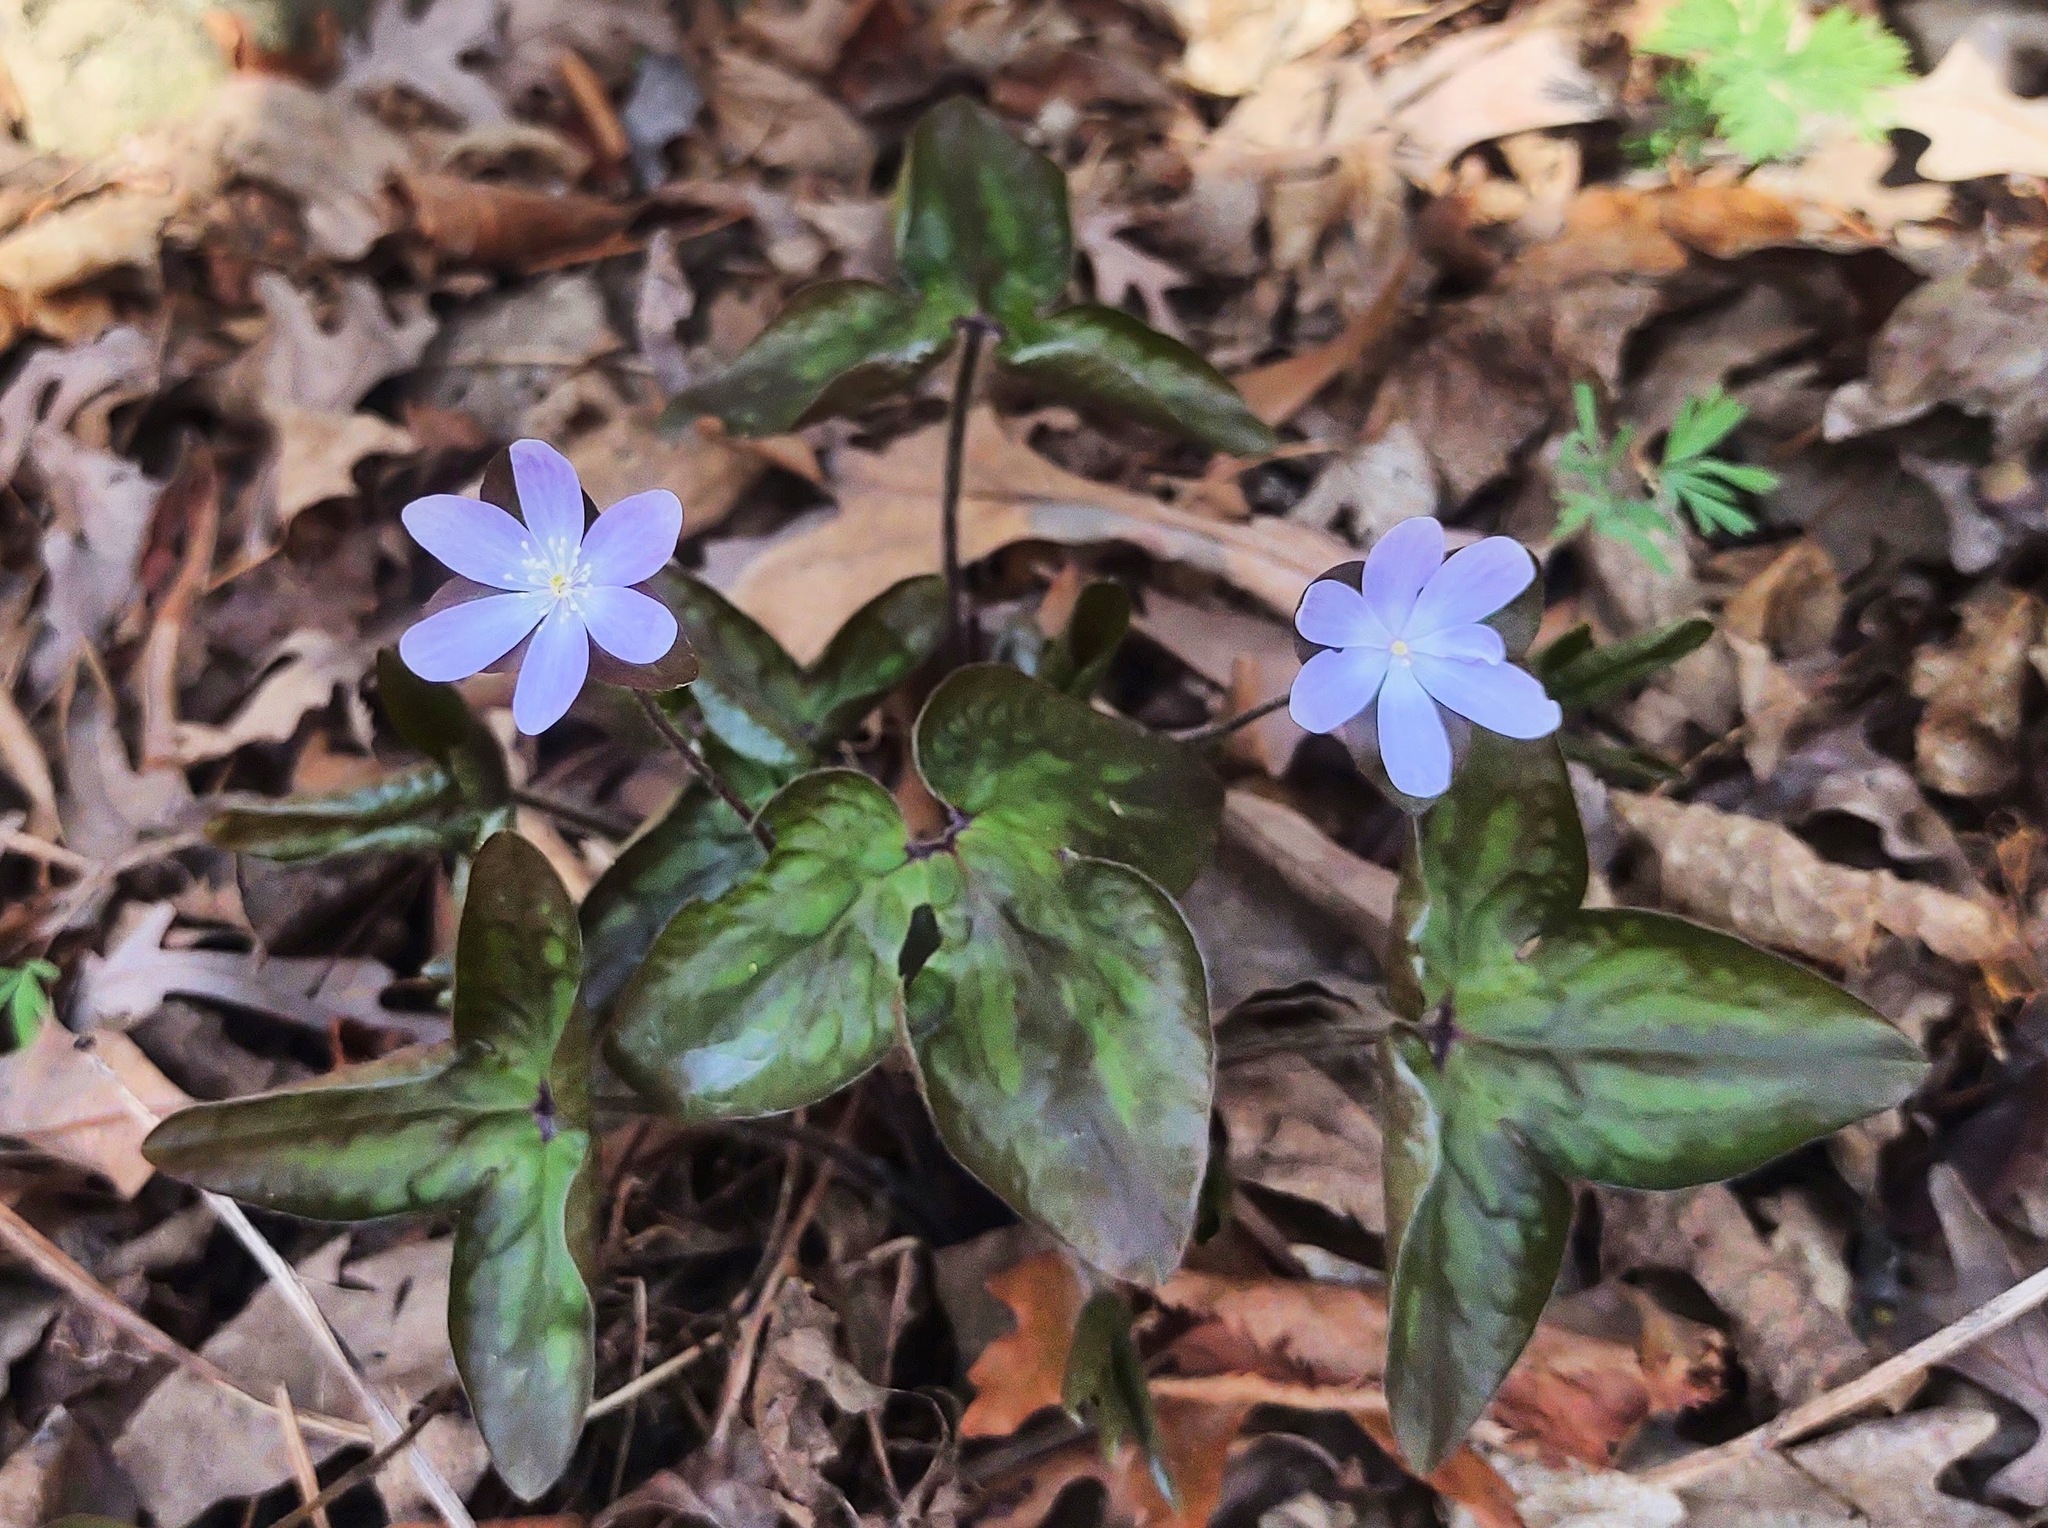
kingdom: Plantae
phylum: Tracheophyta
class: Magnoliopsida
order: Ranunculales
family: Ranunculaceae
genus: Hepatica
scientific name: Hepatica acutiloba
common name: Sharp-lobed hepatica
